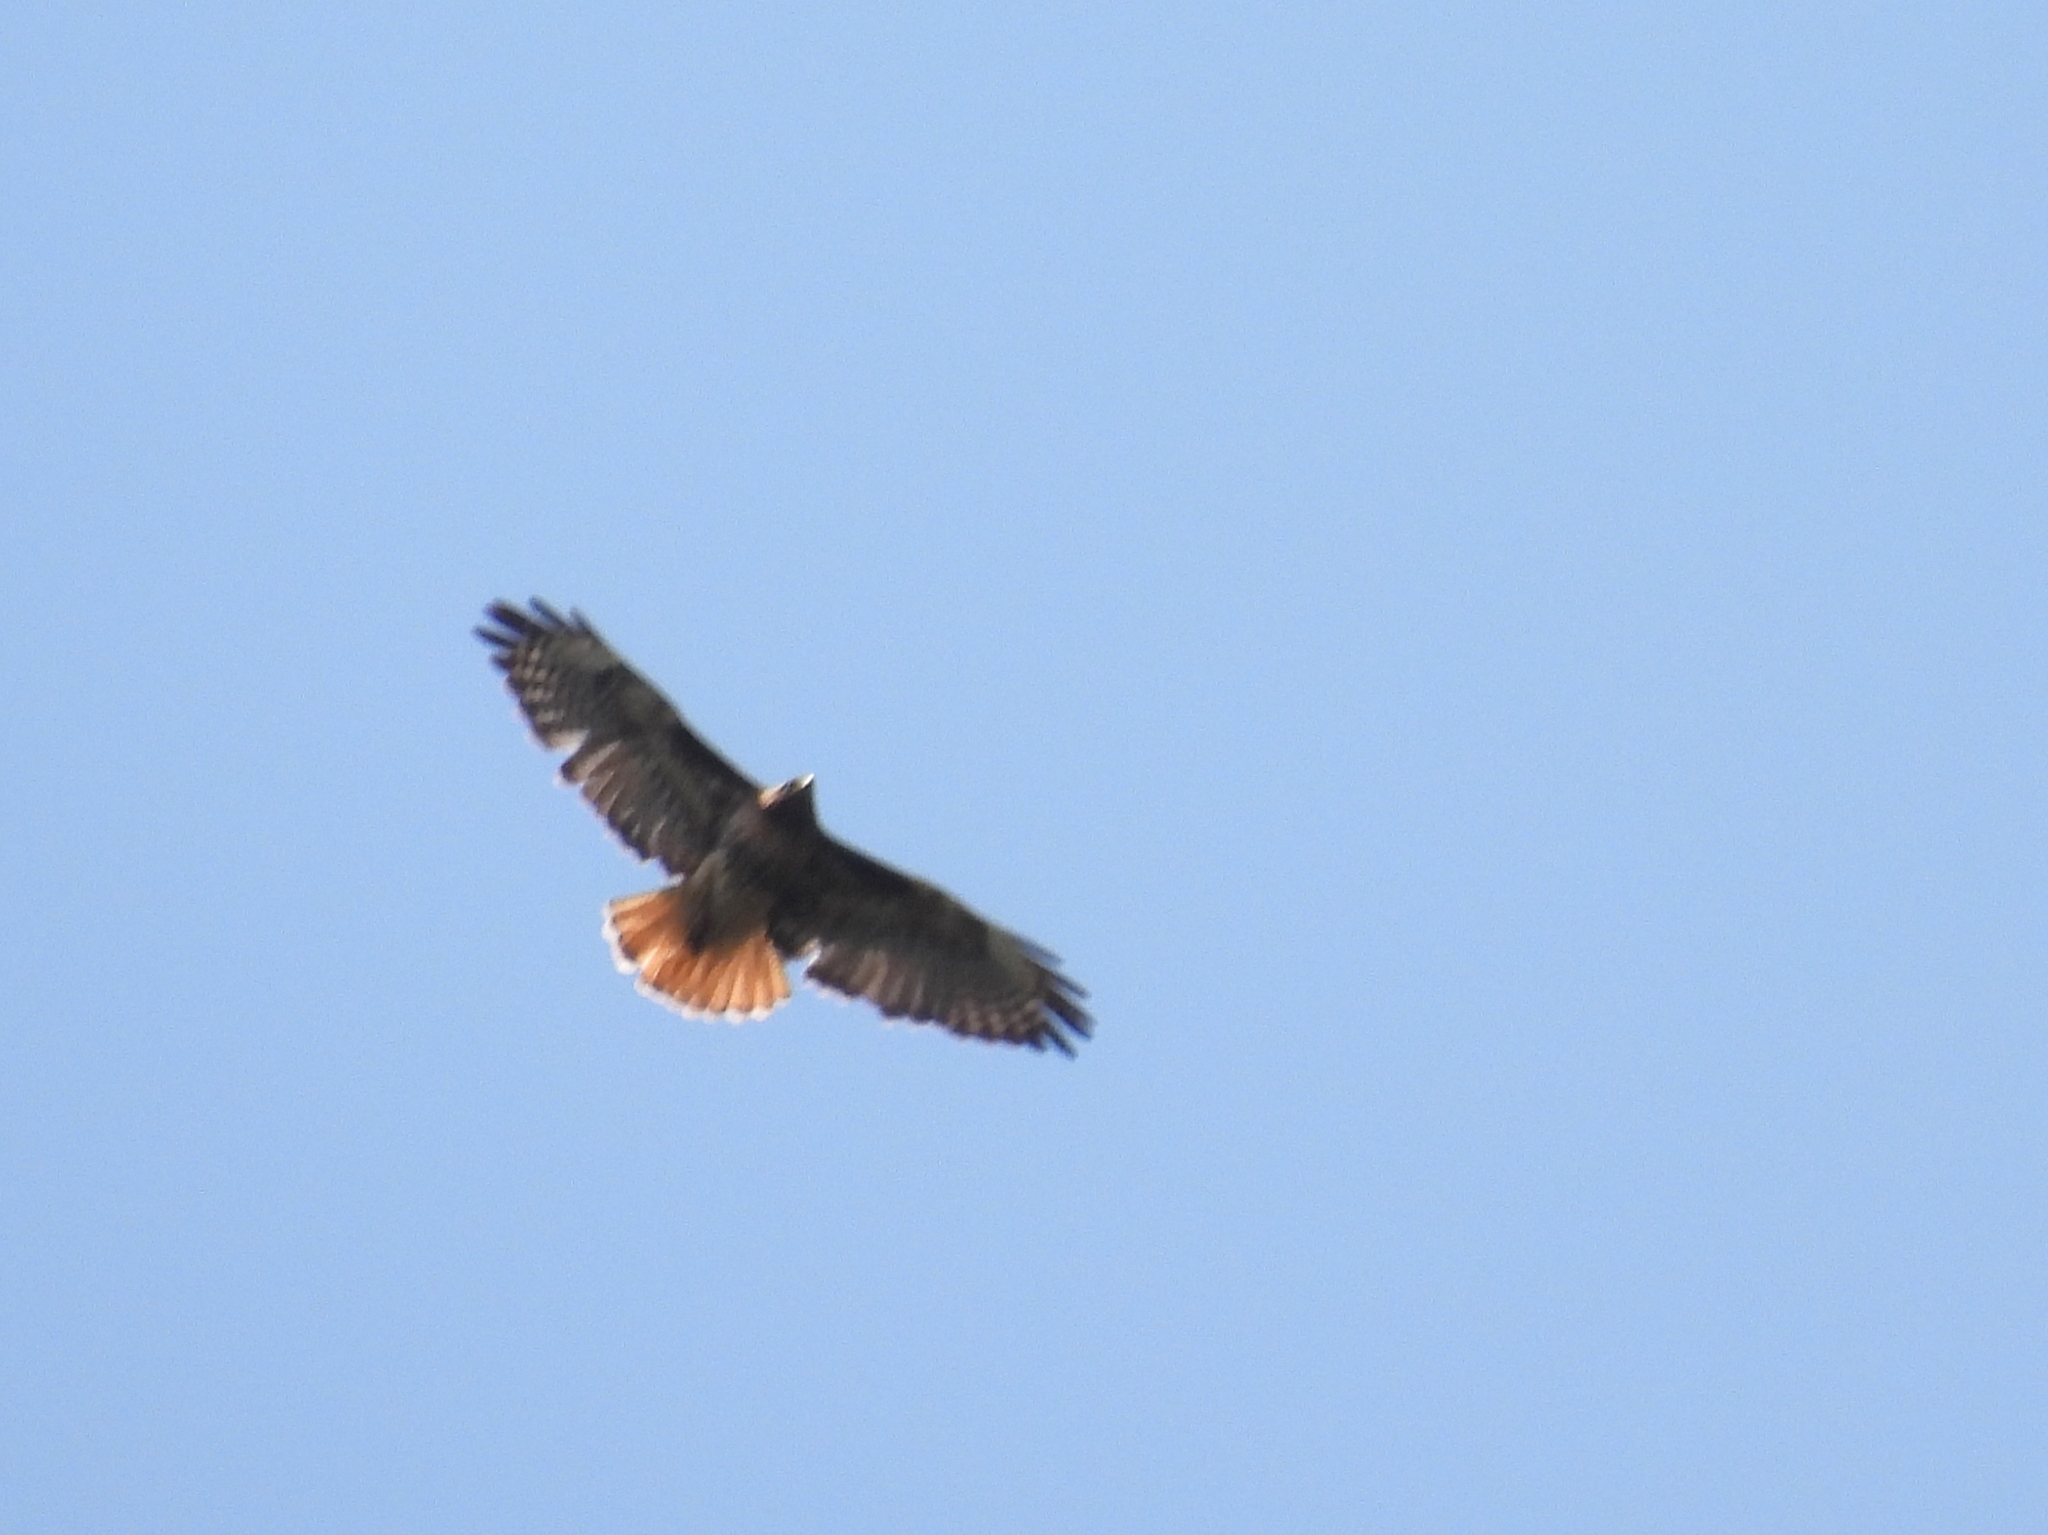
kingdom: Animalia
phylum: Chordata
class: Aves
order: Accipitriformes
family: Accipitridae
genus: Buteo
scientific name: Buteo jamaicensis
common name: Red-tailed hawk
